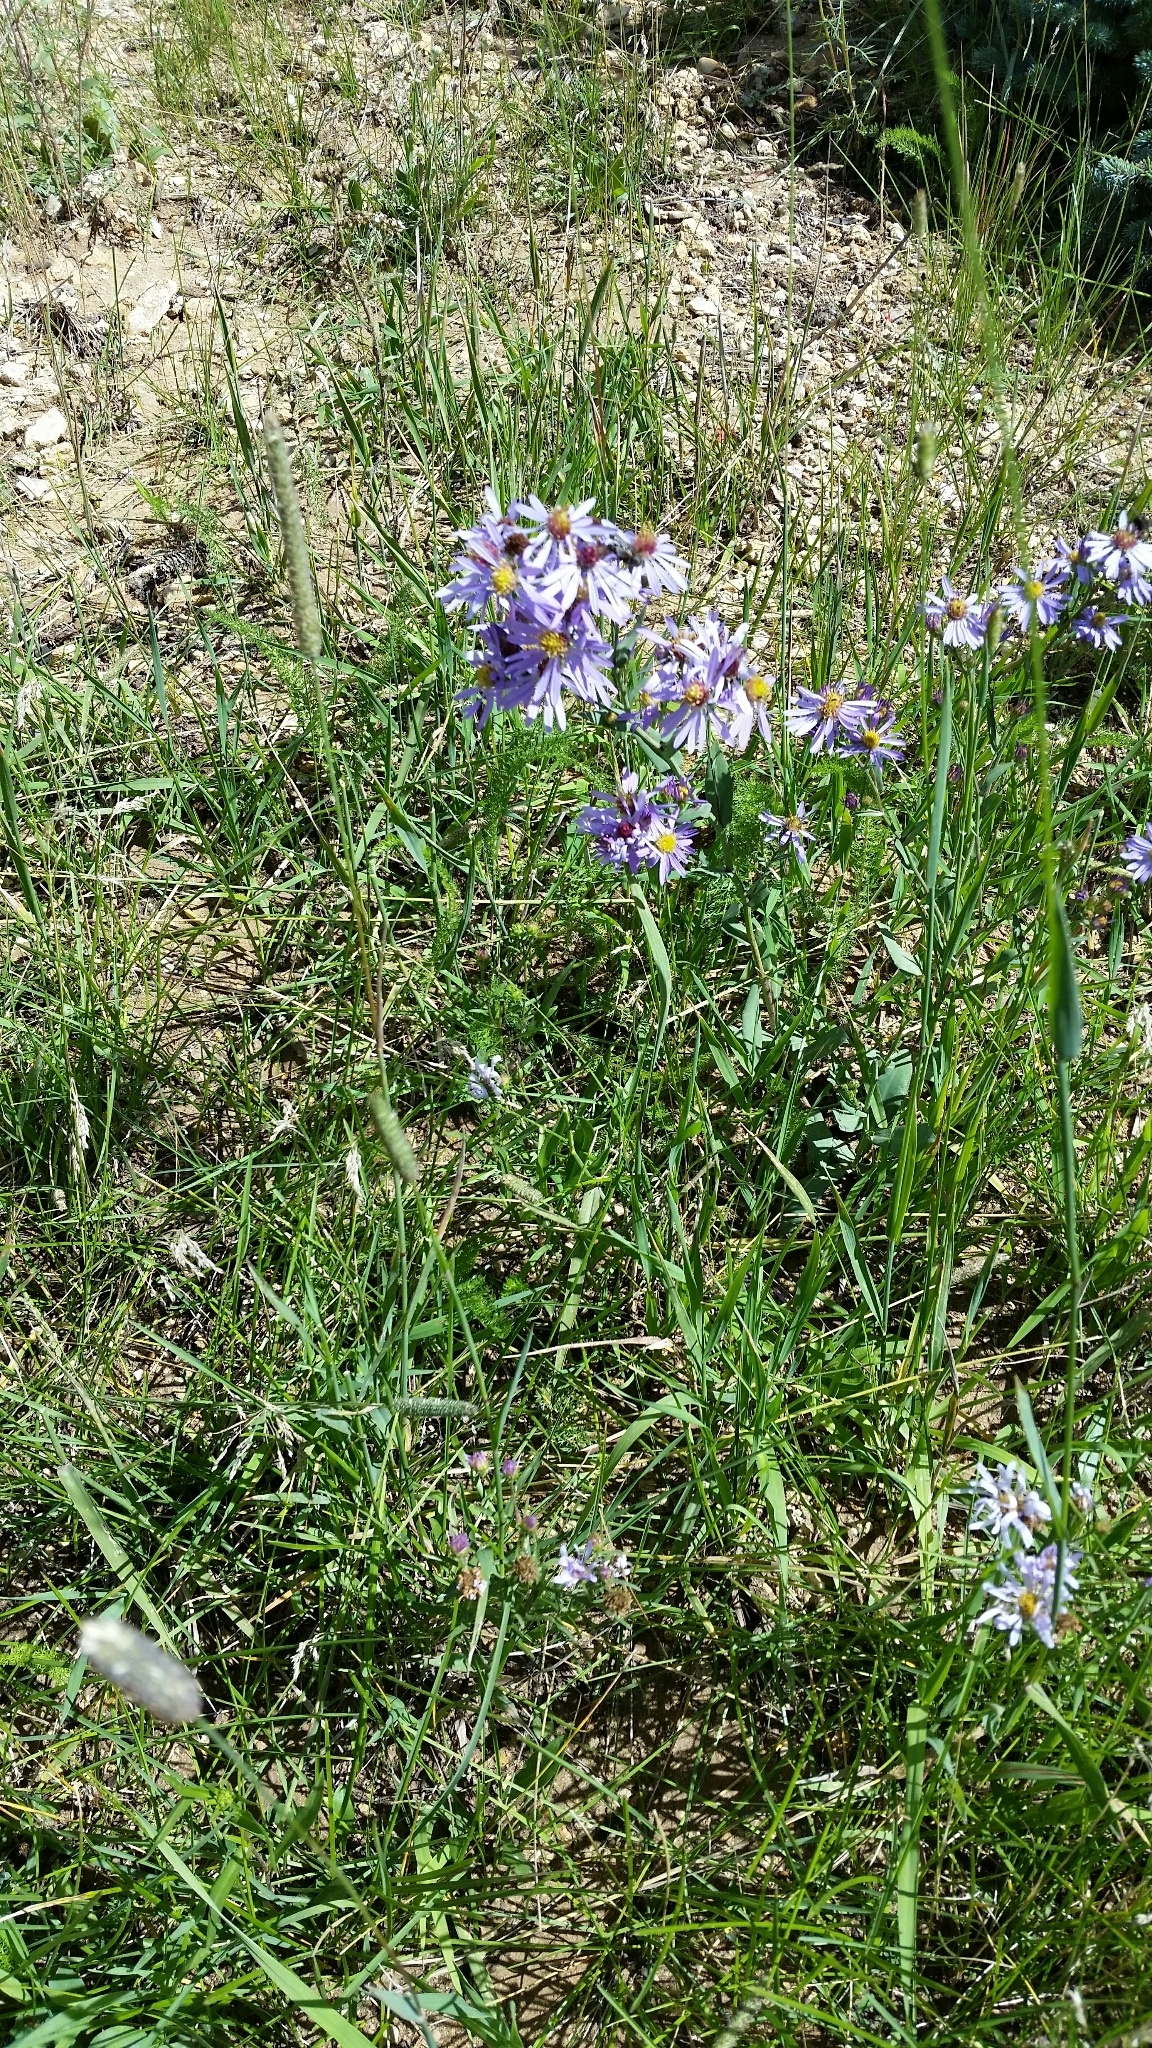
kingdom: Plantae
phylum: Tracheophyta
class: Magnoliopsida
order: Asterales
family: Asteraceae
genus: Symphyotrichum
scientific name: Symphyotrichum laeve
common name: Glaucous aster
